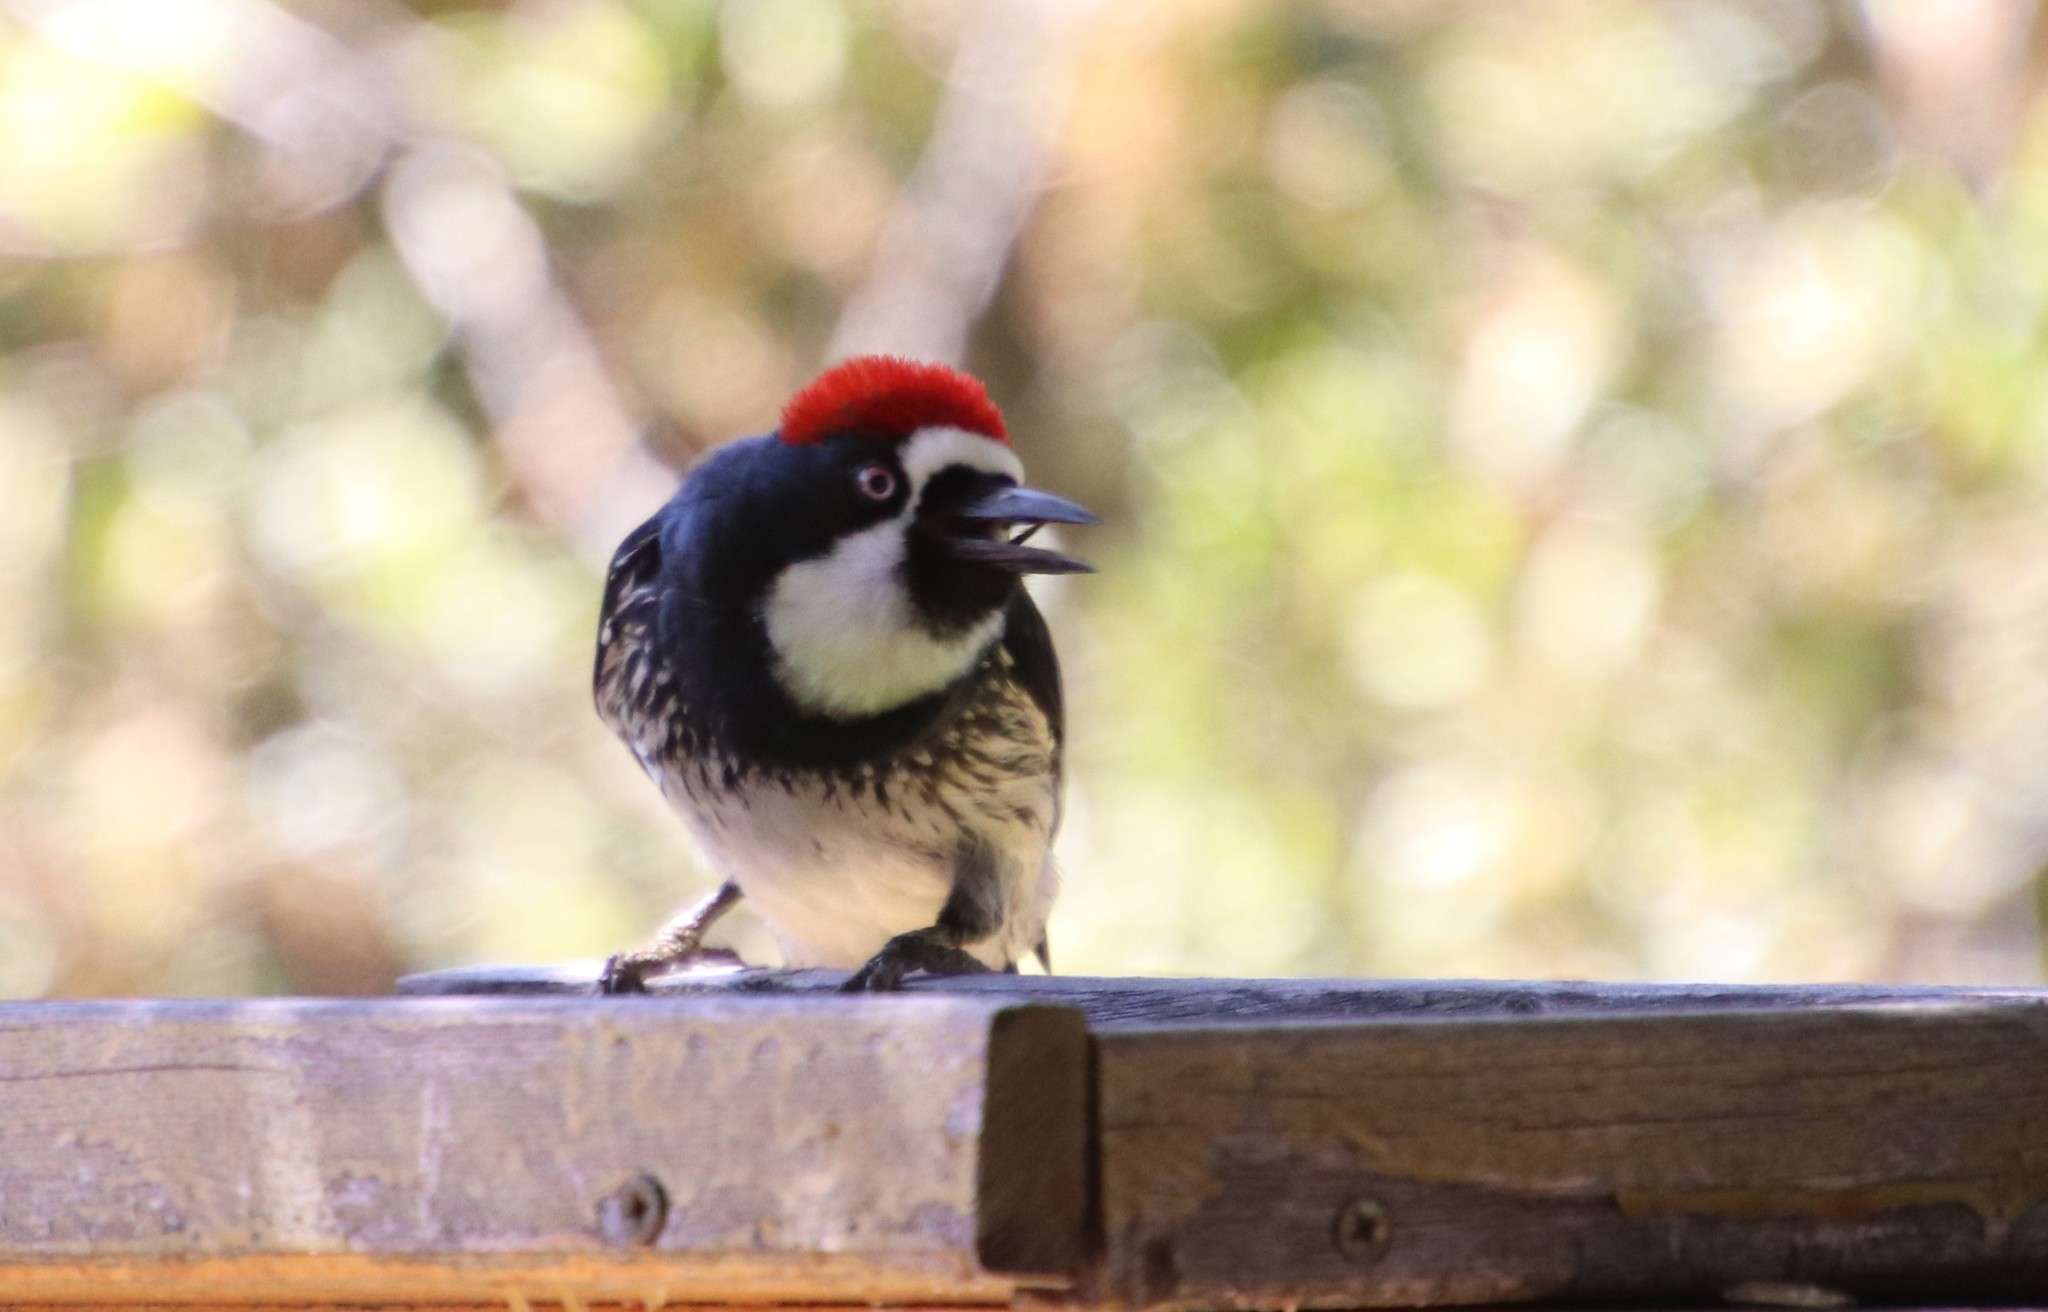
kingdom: Animalia
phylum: Chordata
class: Aves
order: Piciformes
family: Picidae
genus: Melanerpes
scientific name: Melanerpes formicivorus
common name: Acorn woodpecker
